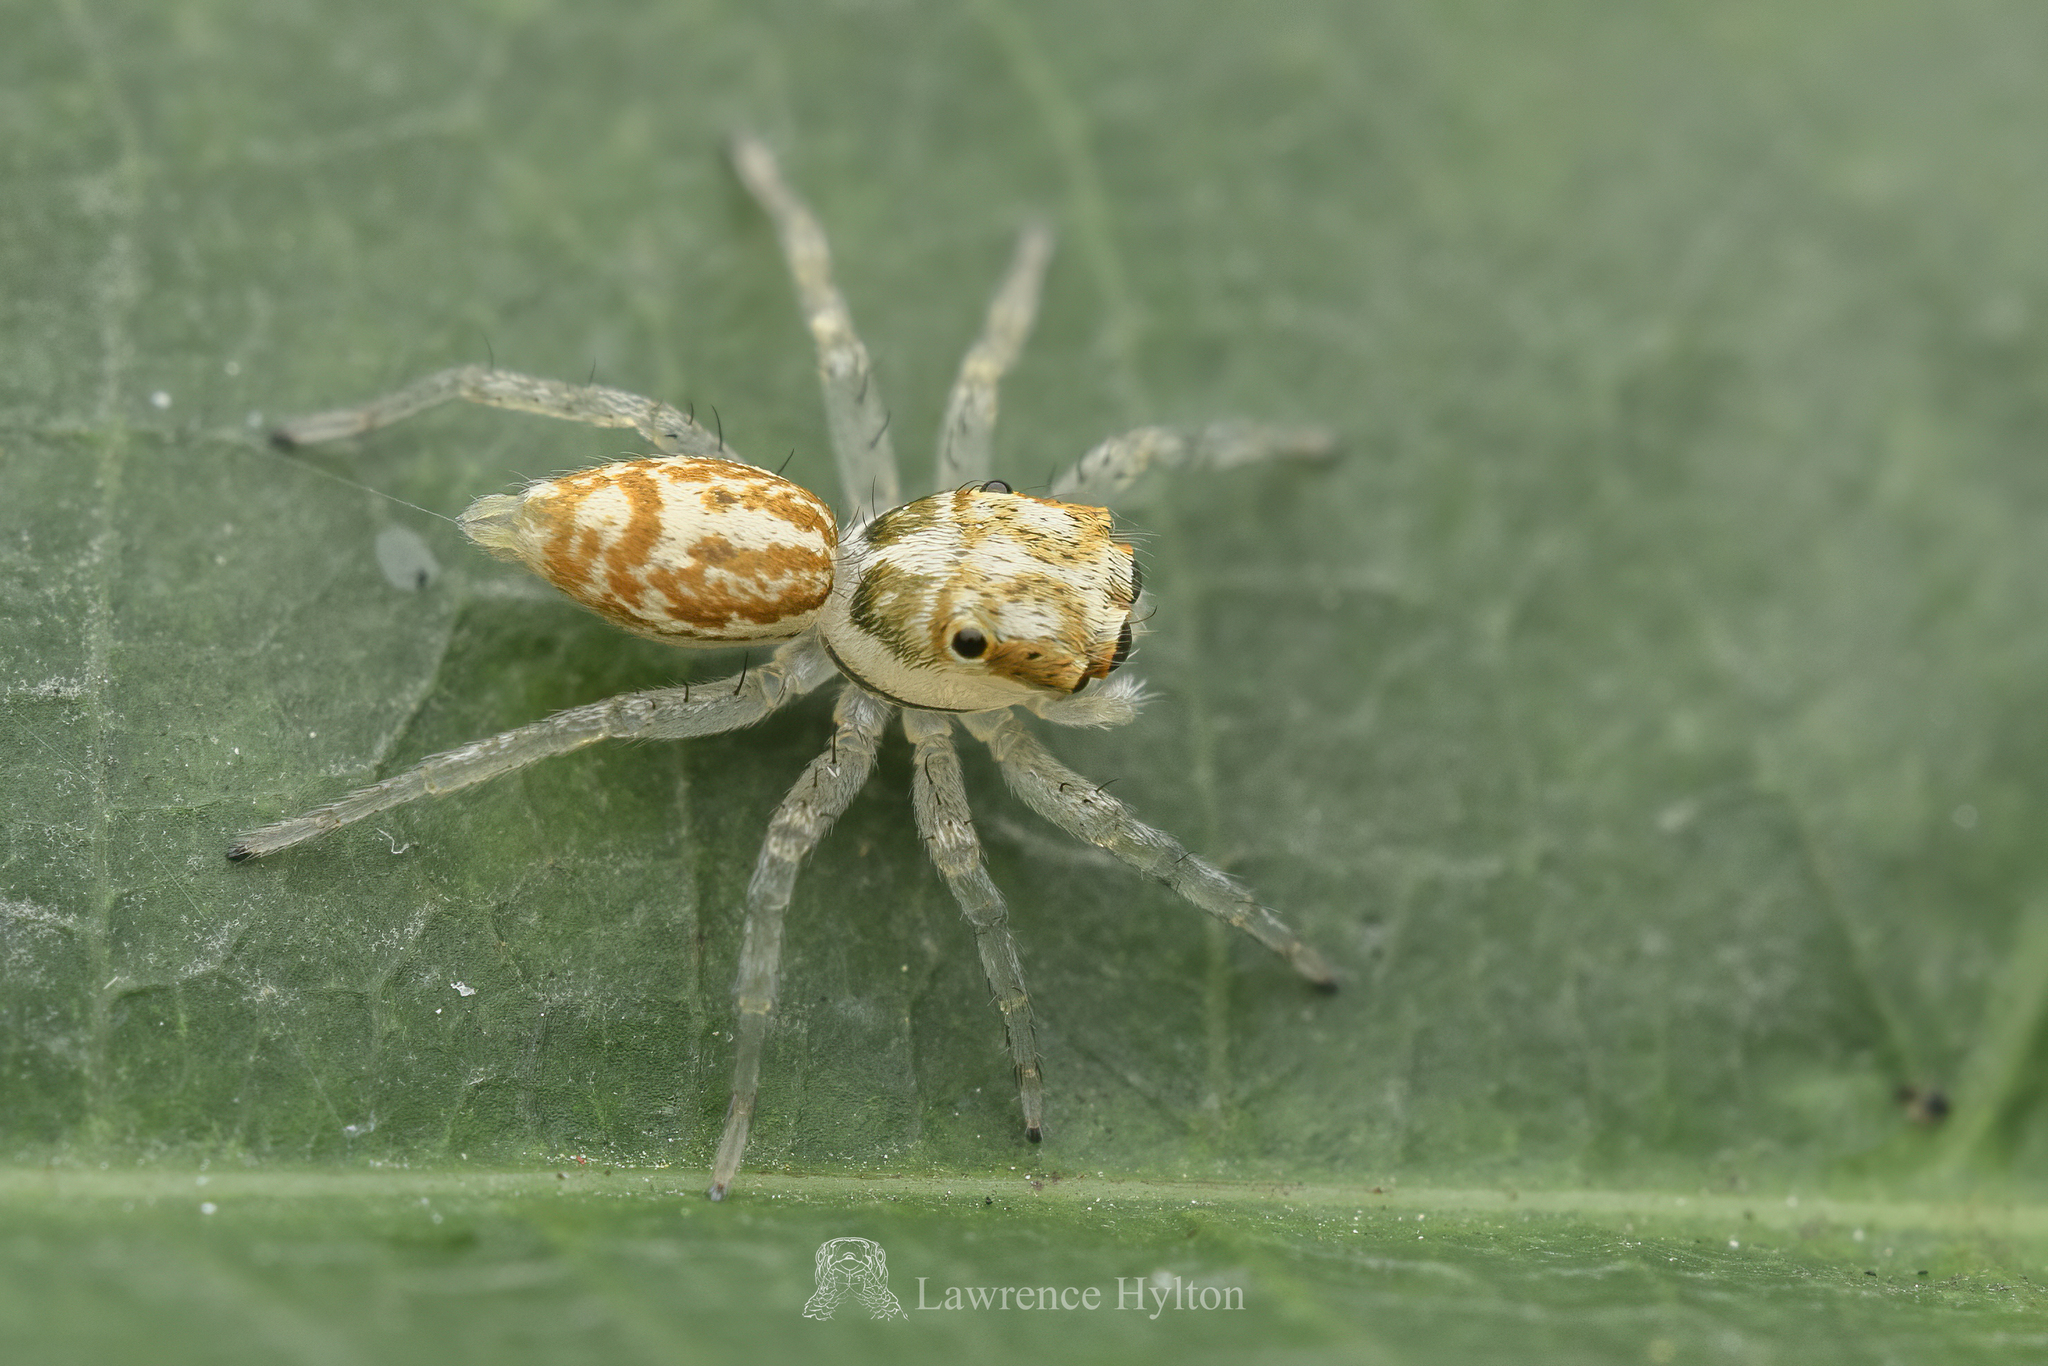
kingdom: Animalia
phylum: Arthropoda
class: Arachnida
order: Araneae
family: Salticidae
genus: Phintelloides
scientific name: Phintelloides versicolor
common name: Jumping spider
